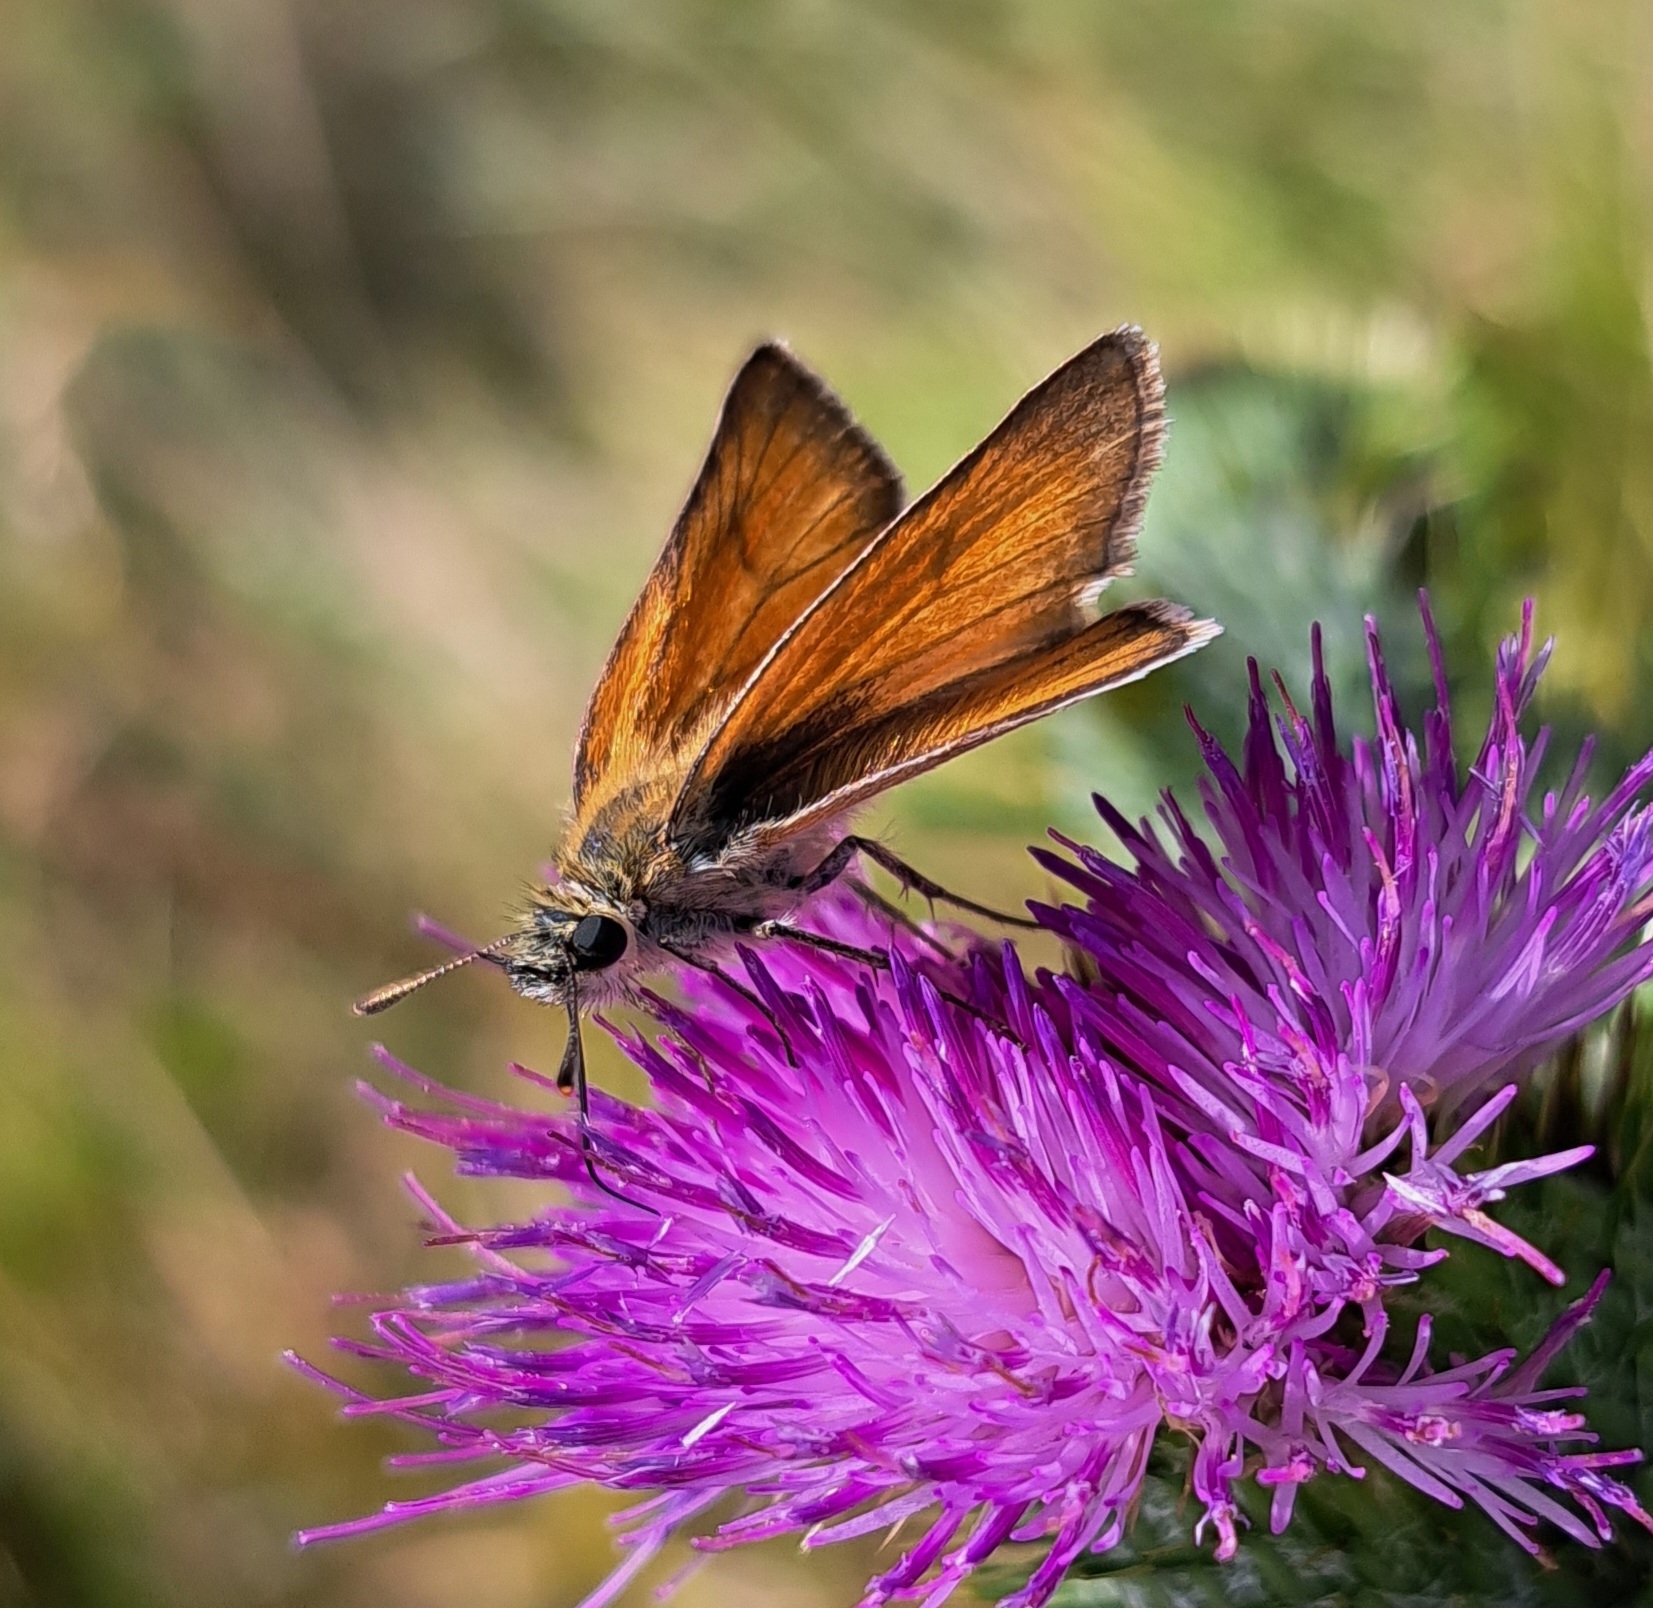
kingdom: Animalia
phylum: Arthropoda
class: Insecta
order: Lepidoptera
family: Hesperiidae
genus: Thymelicus
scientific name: Thymelicus sylvestris
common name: Small skipper
